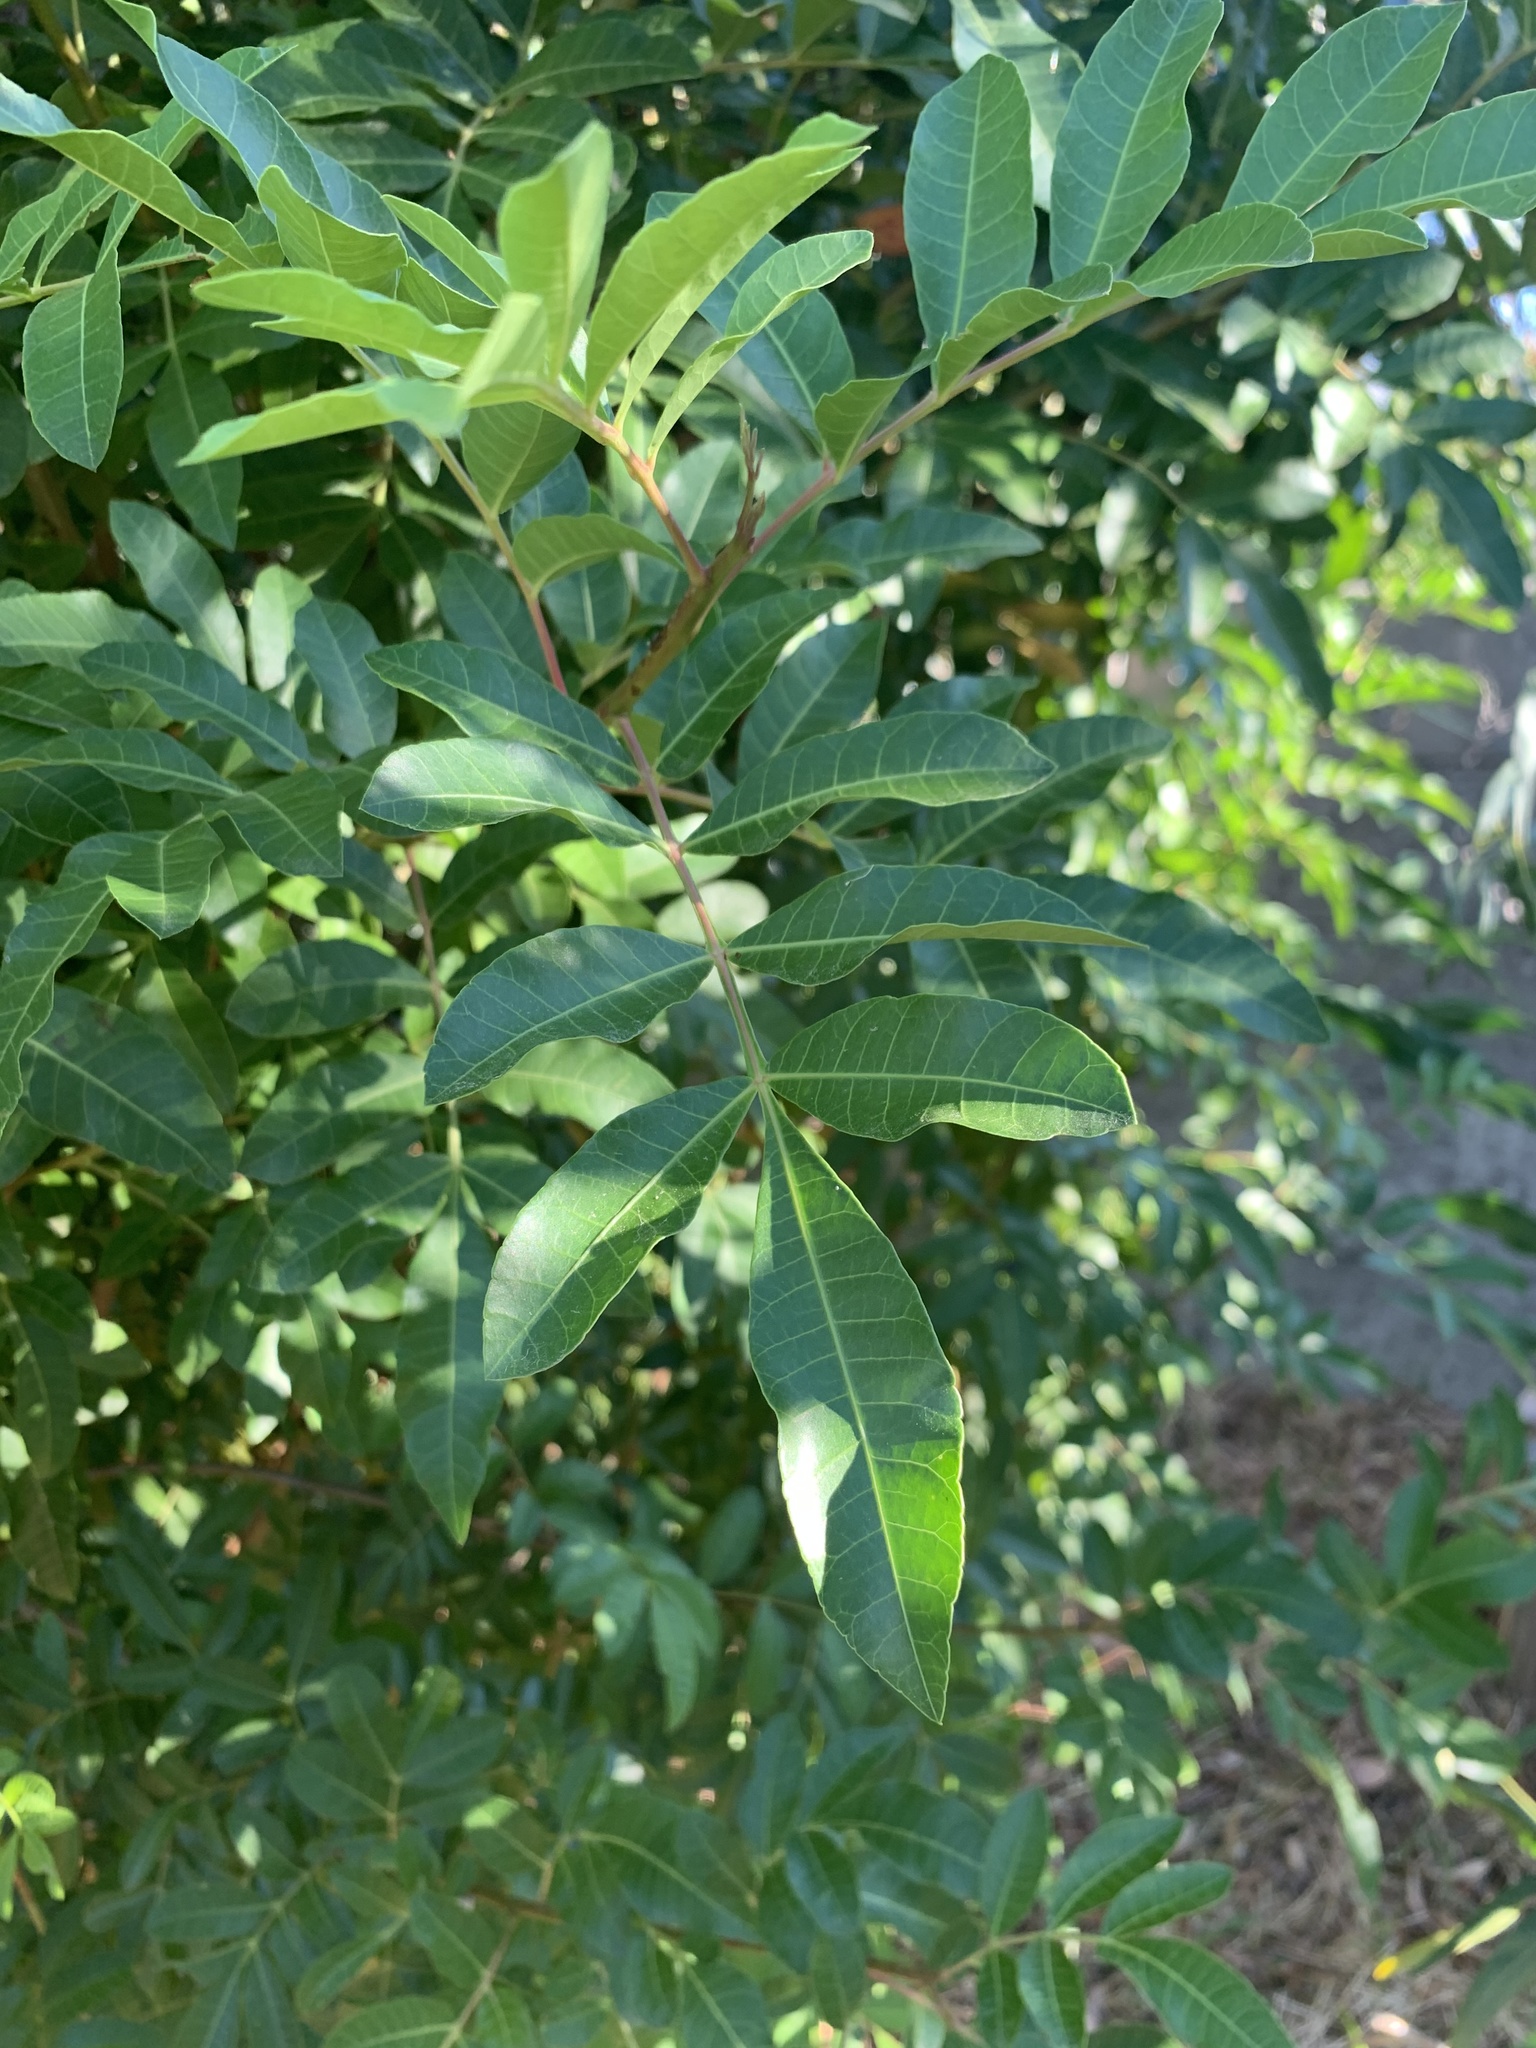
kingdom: Plantae
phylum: Tracheophyta
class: Magnoliopsida
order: Sapindales
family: Anacardiaceae
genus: Schinus
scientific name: Schinus terebinthifolia
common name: Brazilian peppertree
